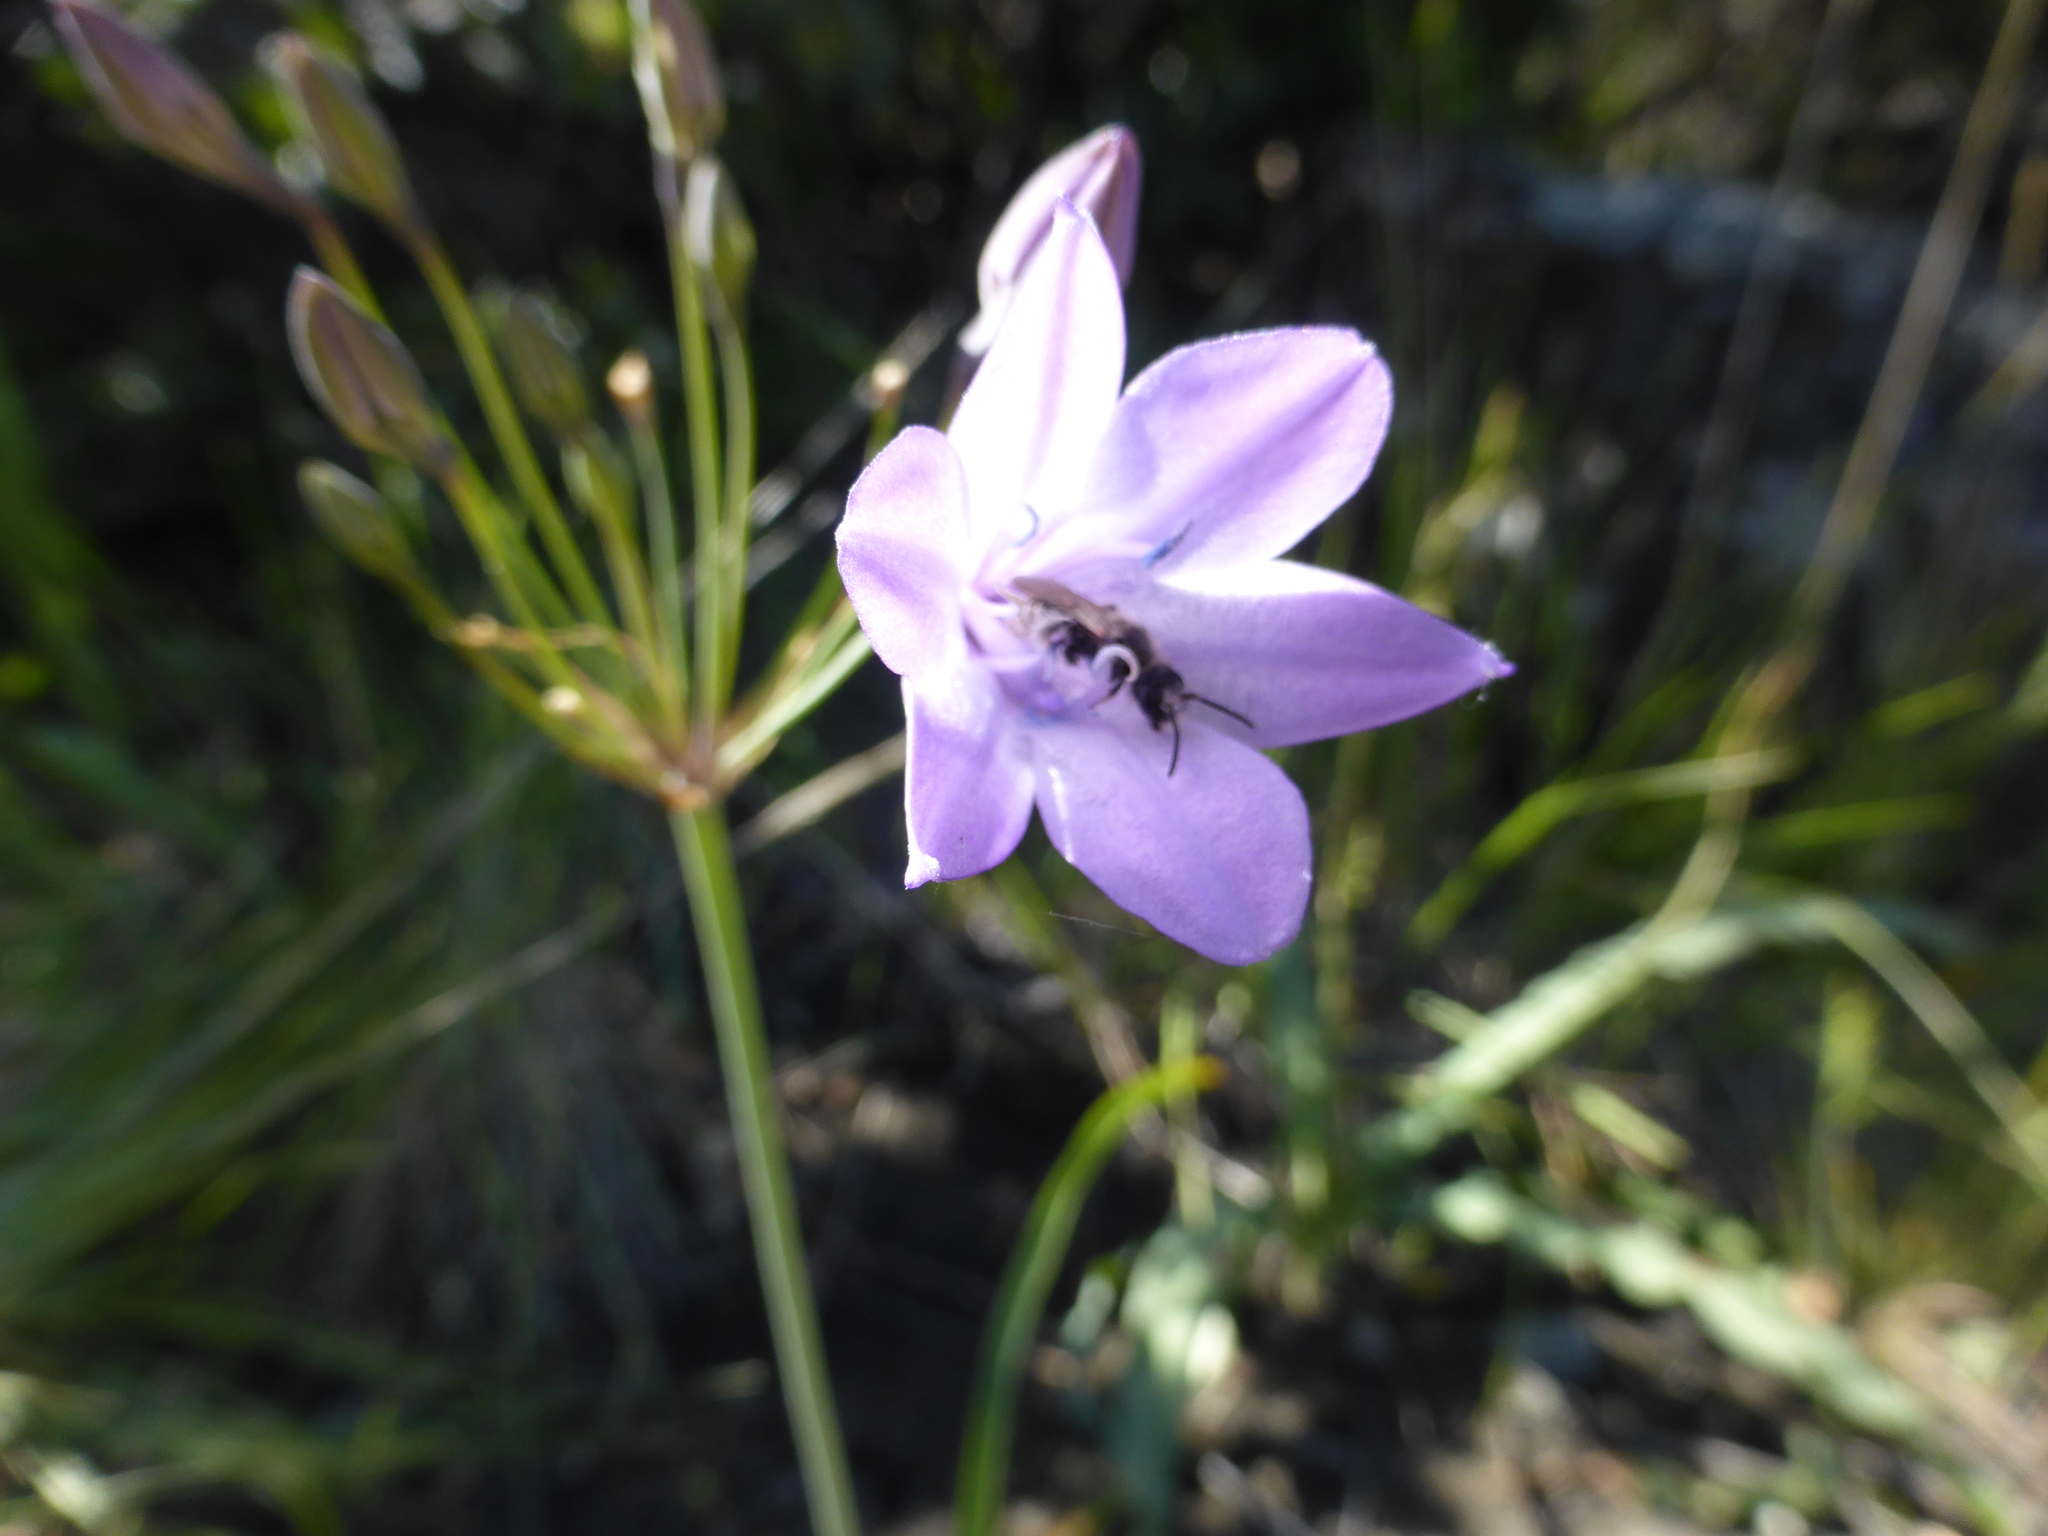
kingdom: Plantae
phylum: Tracheophyta
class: Liliopsida
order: Asparagales
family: Asparagaceae
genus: Triteleia
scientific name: Triteleia laxa
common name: Triplet-lily
